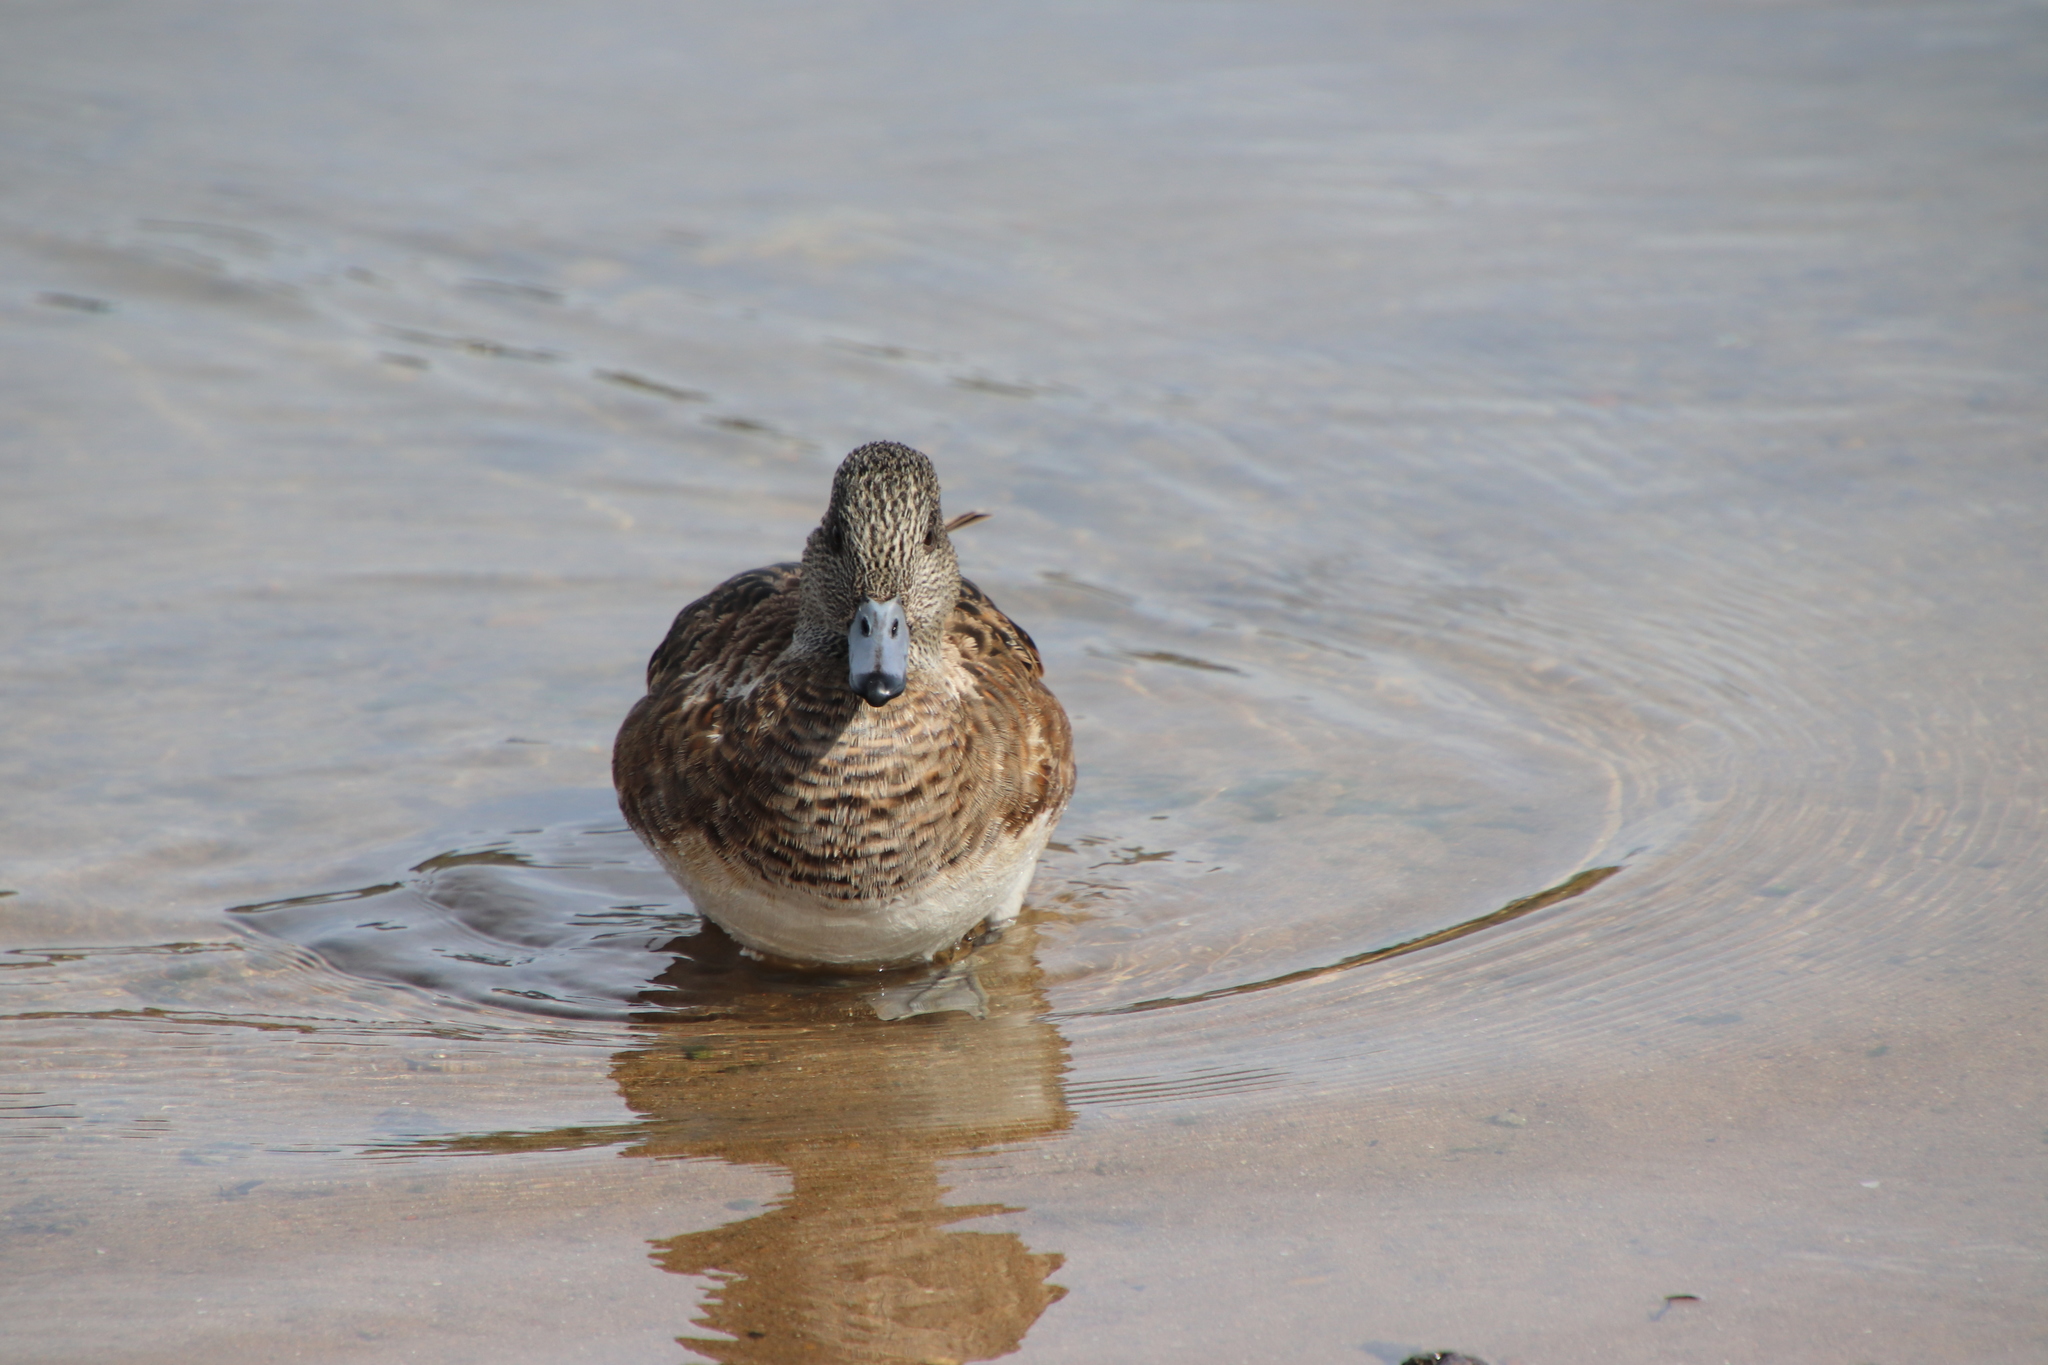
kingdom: Animalia
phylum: Chordata
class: Aves
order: Anseriformes
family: Anatidae
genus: Mareca
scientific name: Mareca americana
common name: American wigeon
